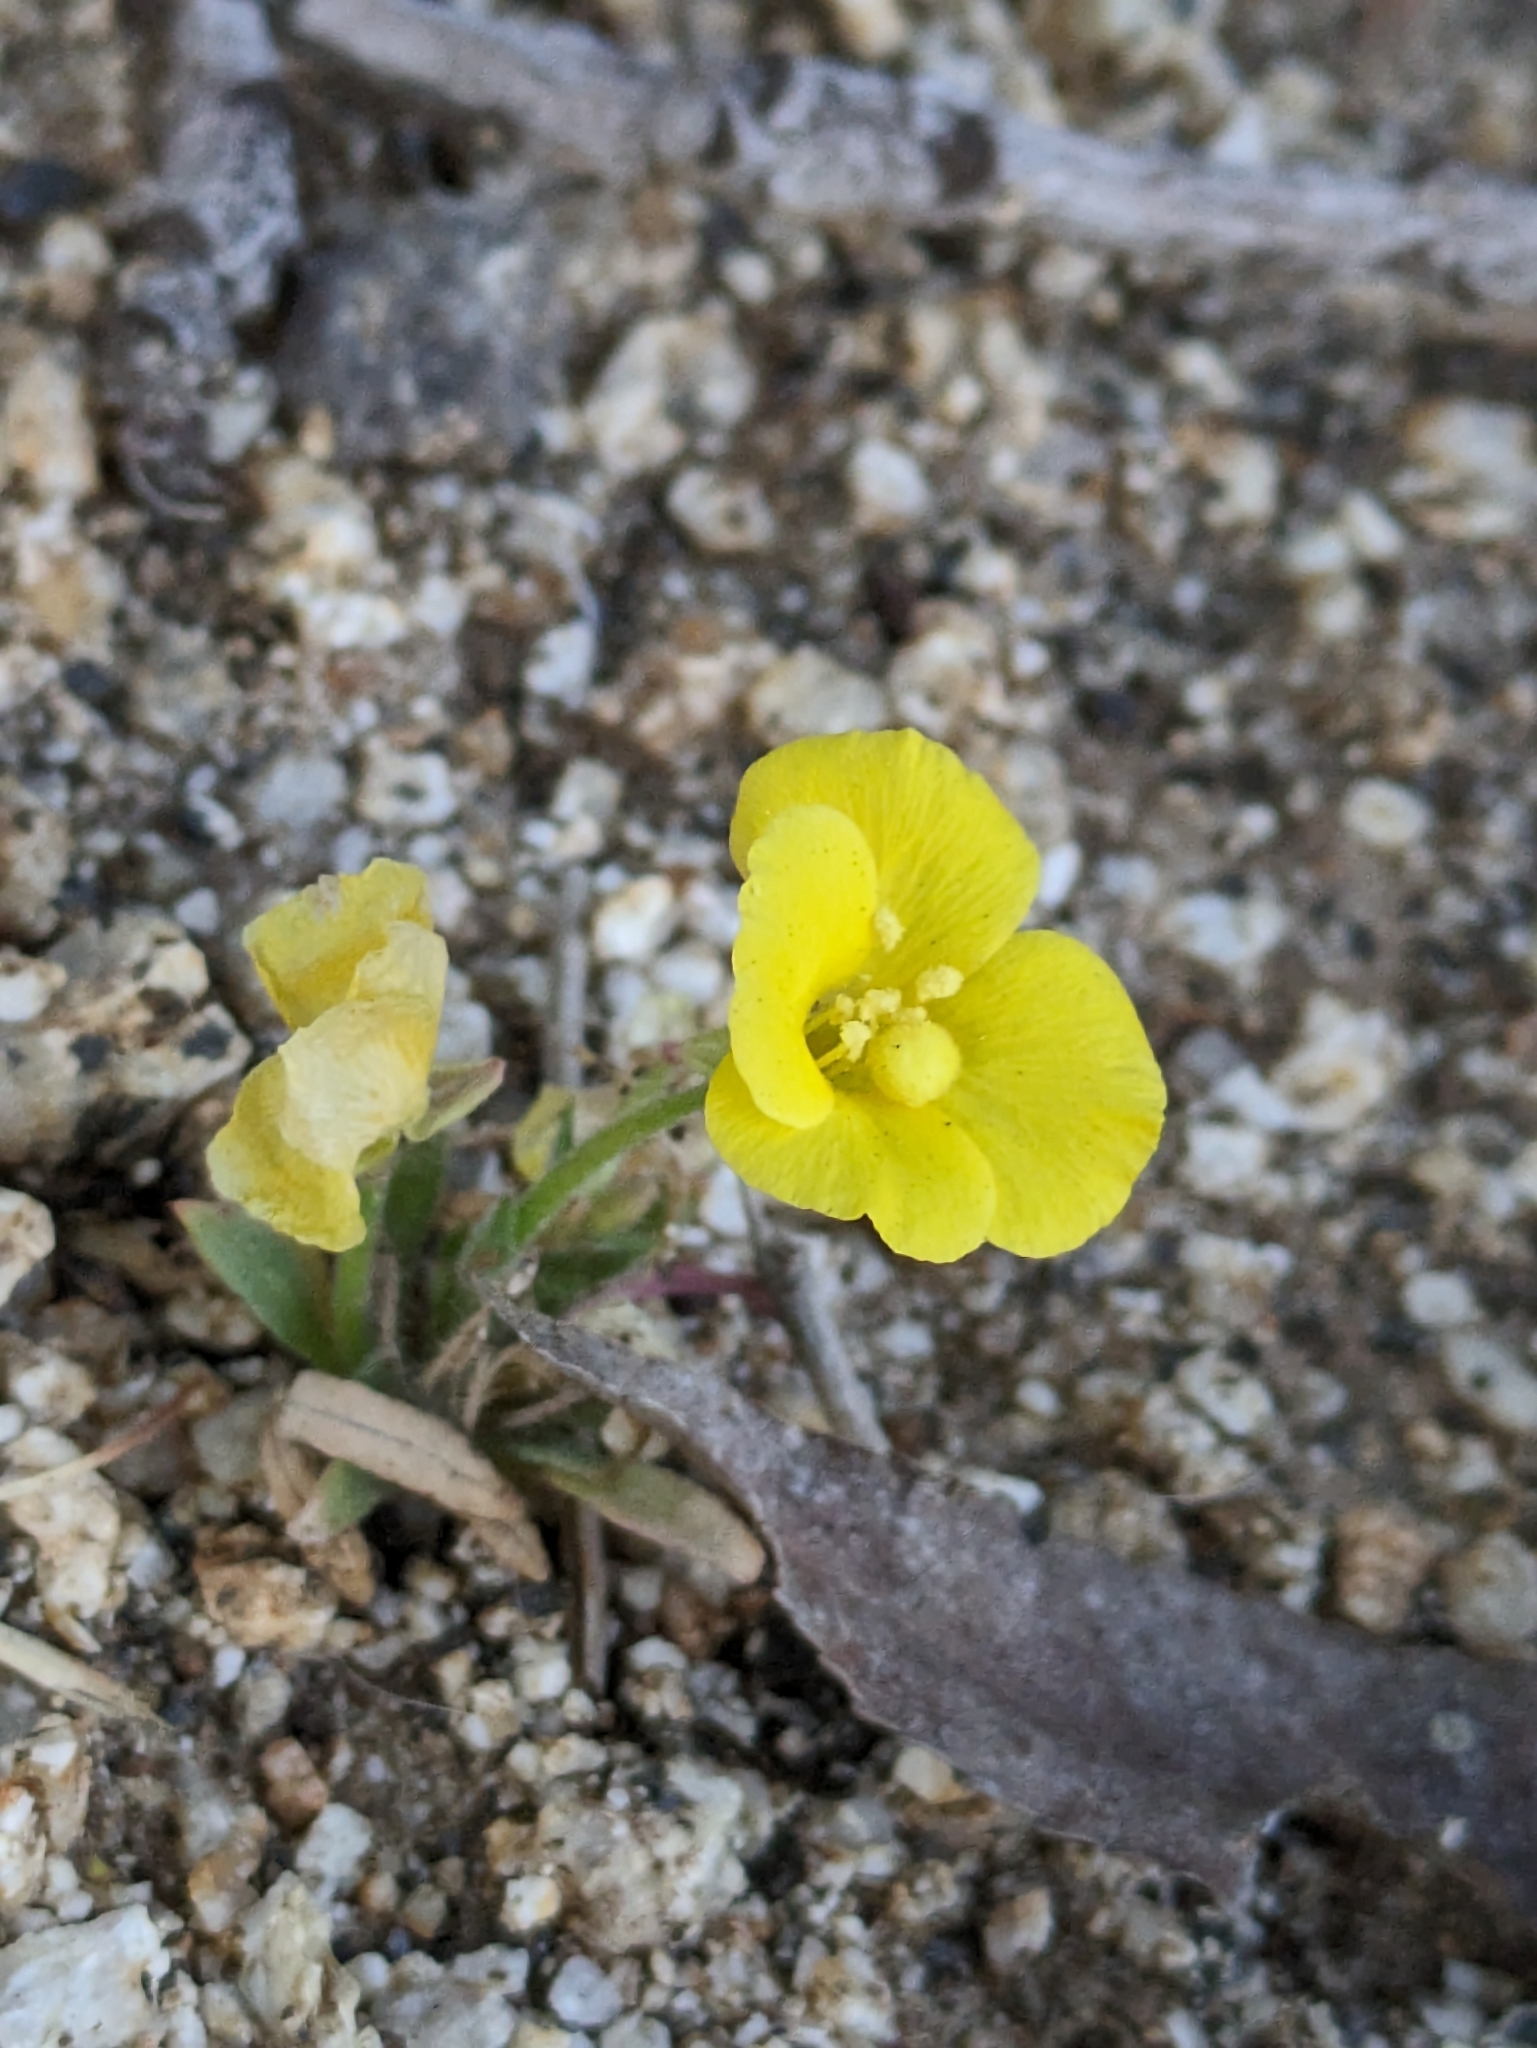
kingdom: Plantae
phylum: Tracheophyta
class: Magnoliopsida
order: Myrtales
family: Onagraceae
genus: Camissoniopsis
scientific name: Camissoniopsis bistorta
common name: Southern suncup
